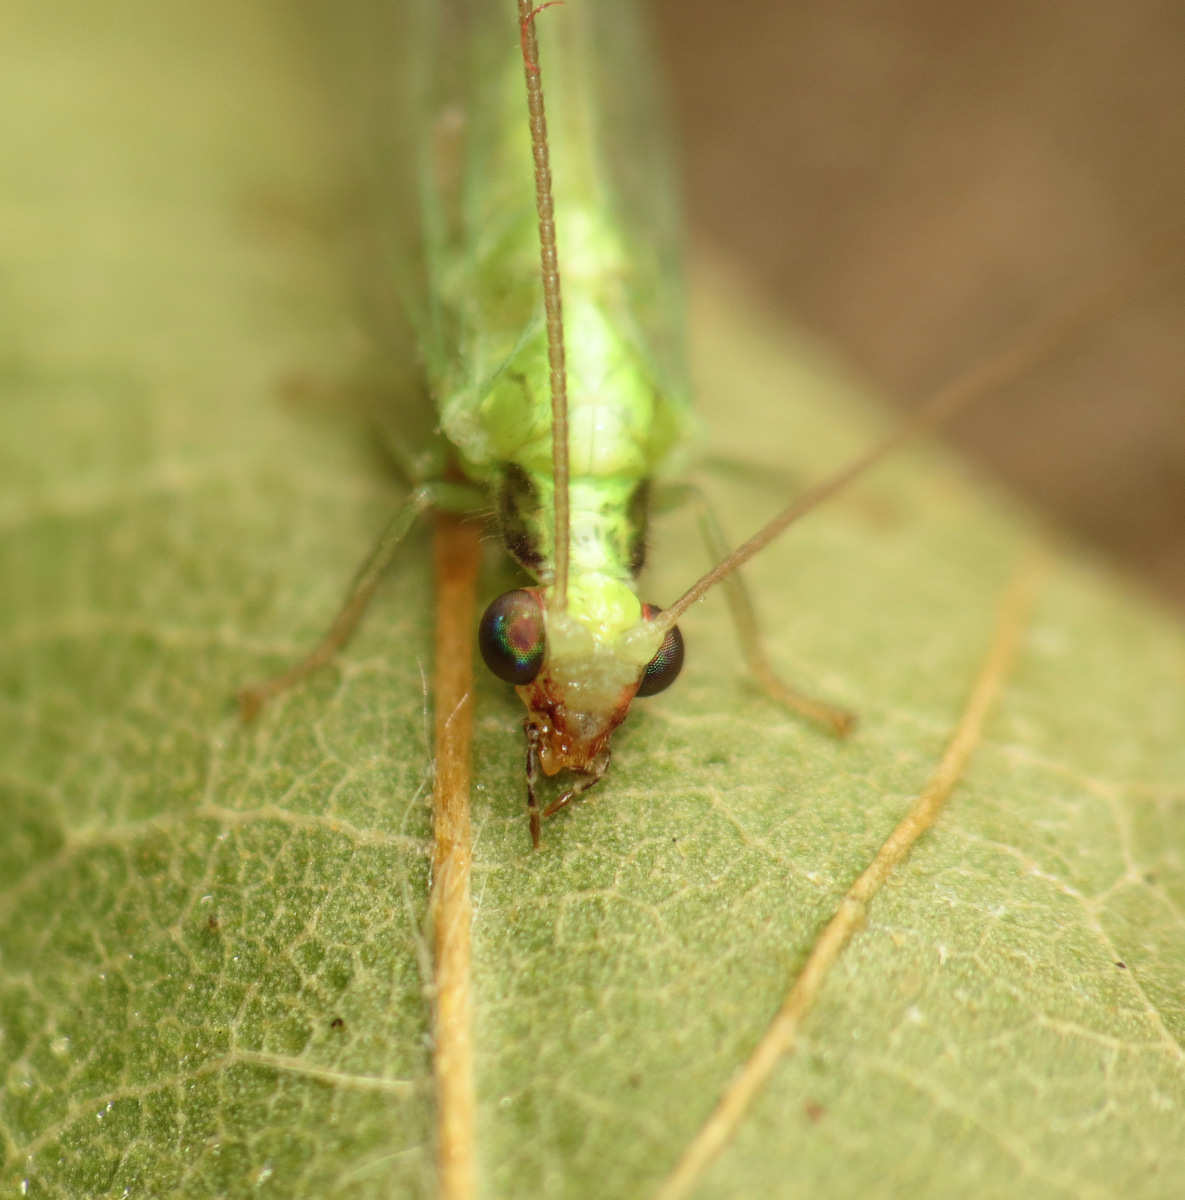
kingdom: Animalia
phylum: Arthropoda
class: Insecta
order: Neuroptera
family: Chrysopidae
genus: Chrysoperla
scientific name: Chrysoperla rufilabris
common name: Red-lipped green lacewing
